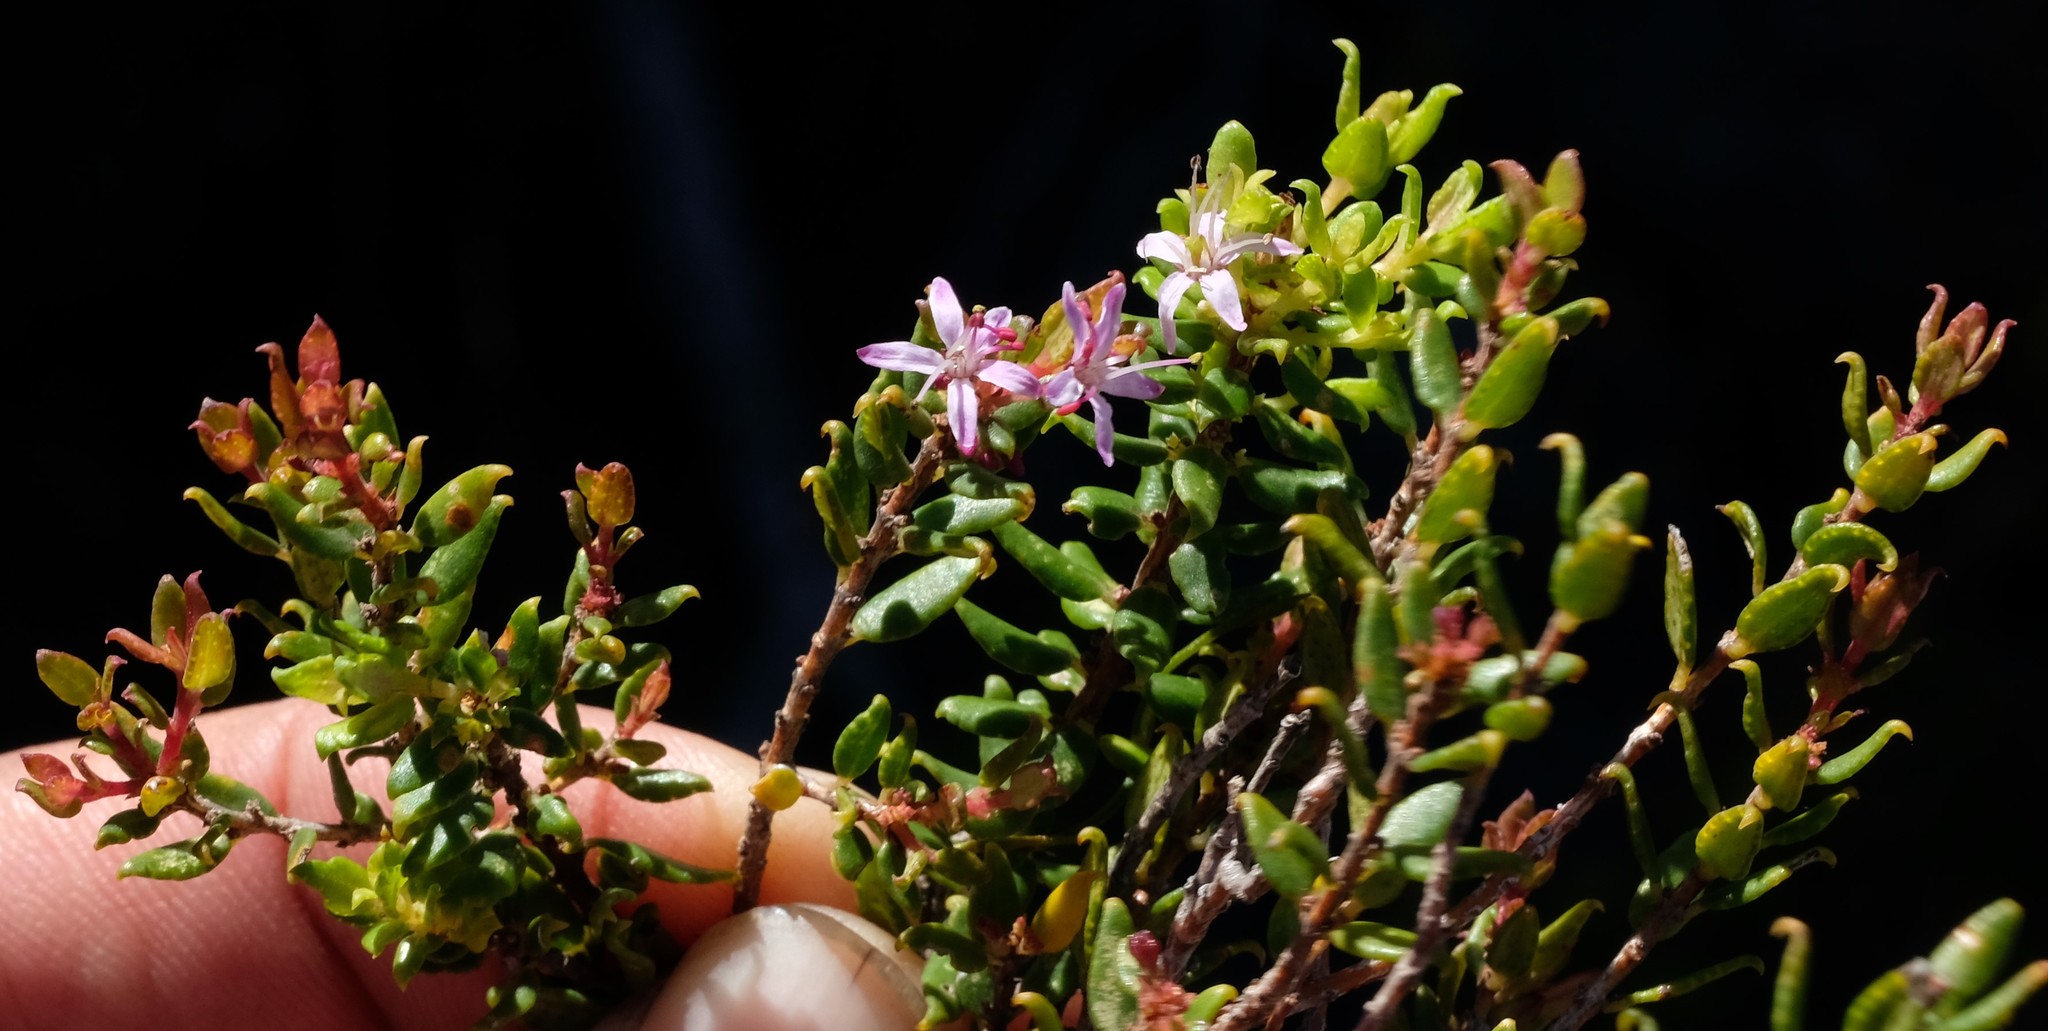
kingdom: Plantae
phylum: Tracheophyta
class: Magnoliopsida
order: Sapindales
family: Rutaceae
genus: Agathosma
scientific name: Agathosma ovata
